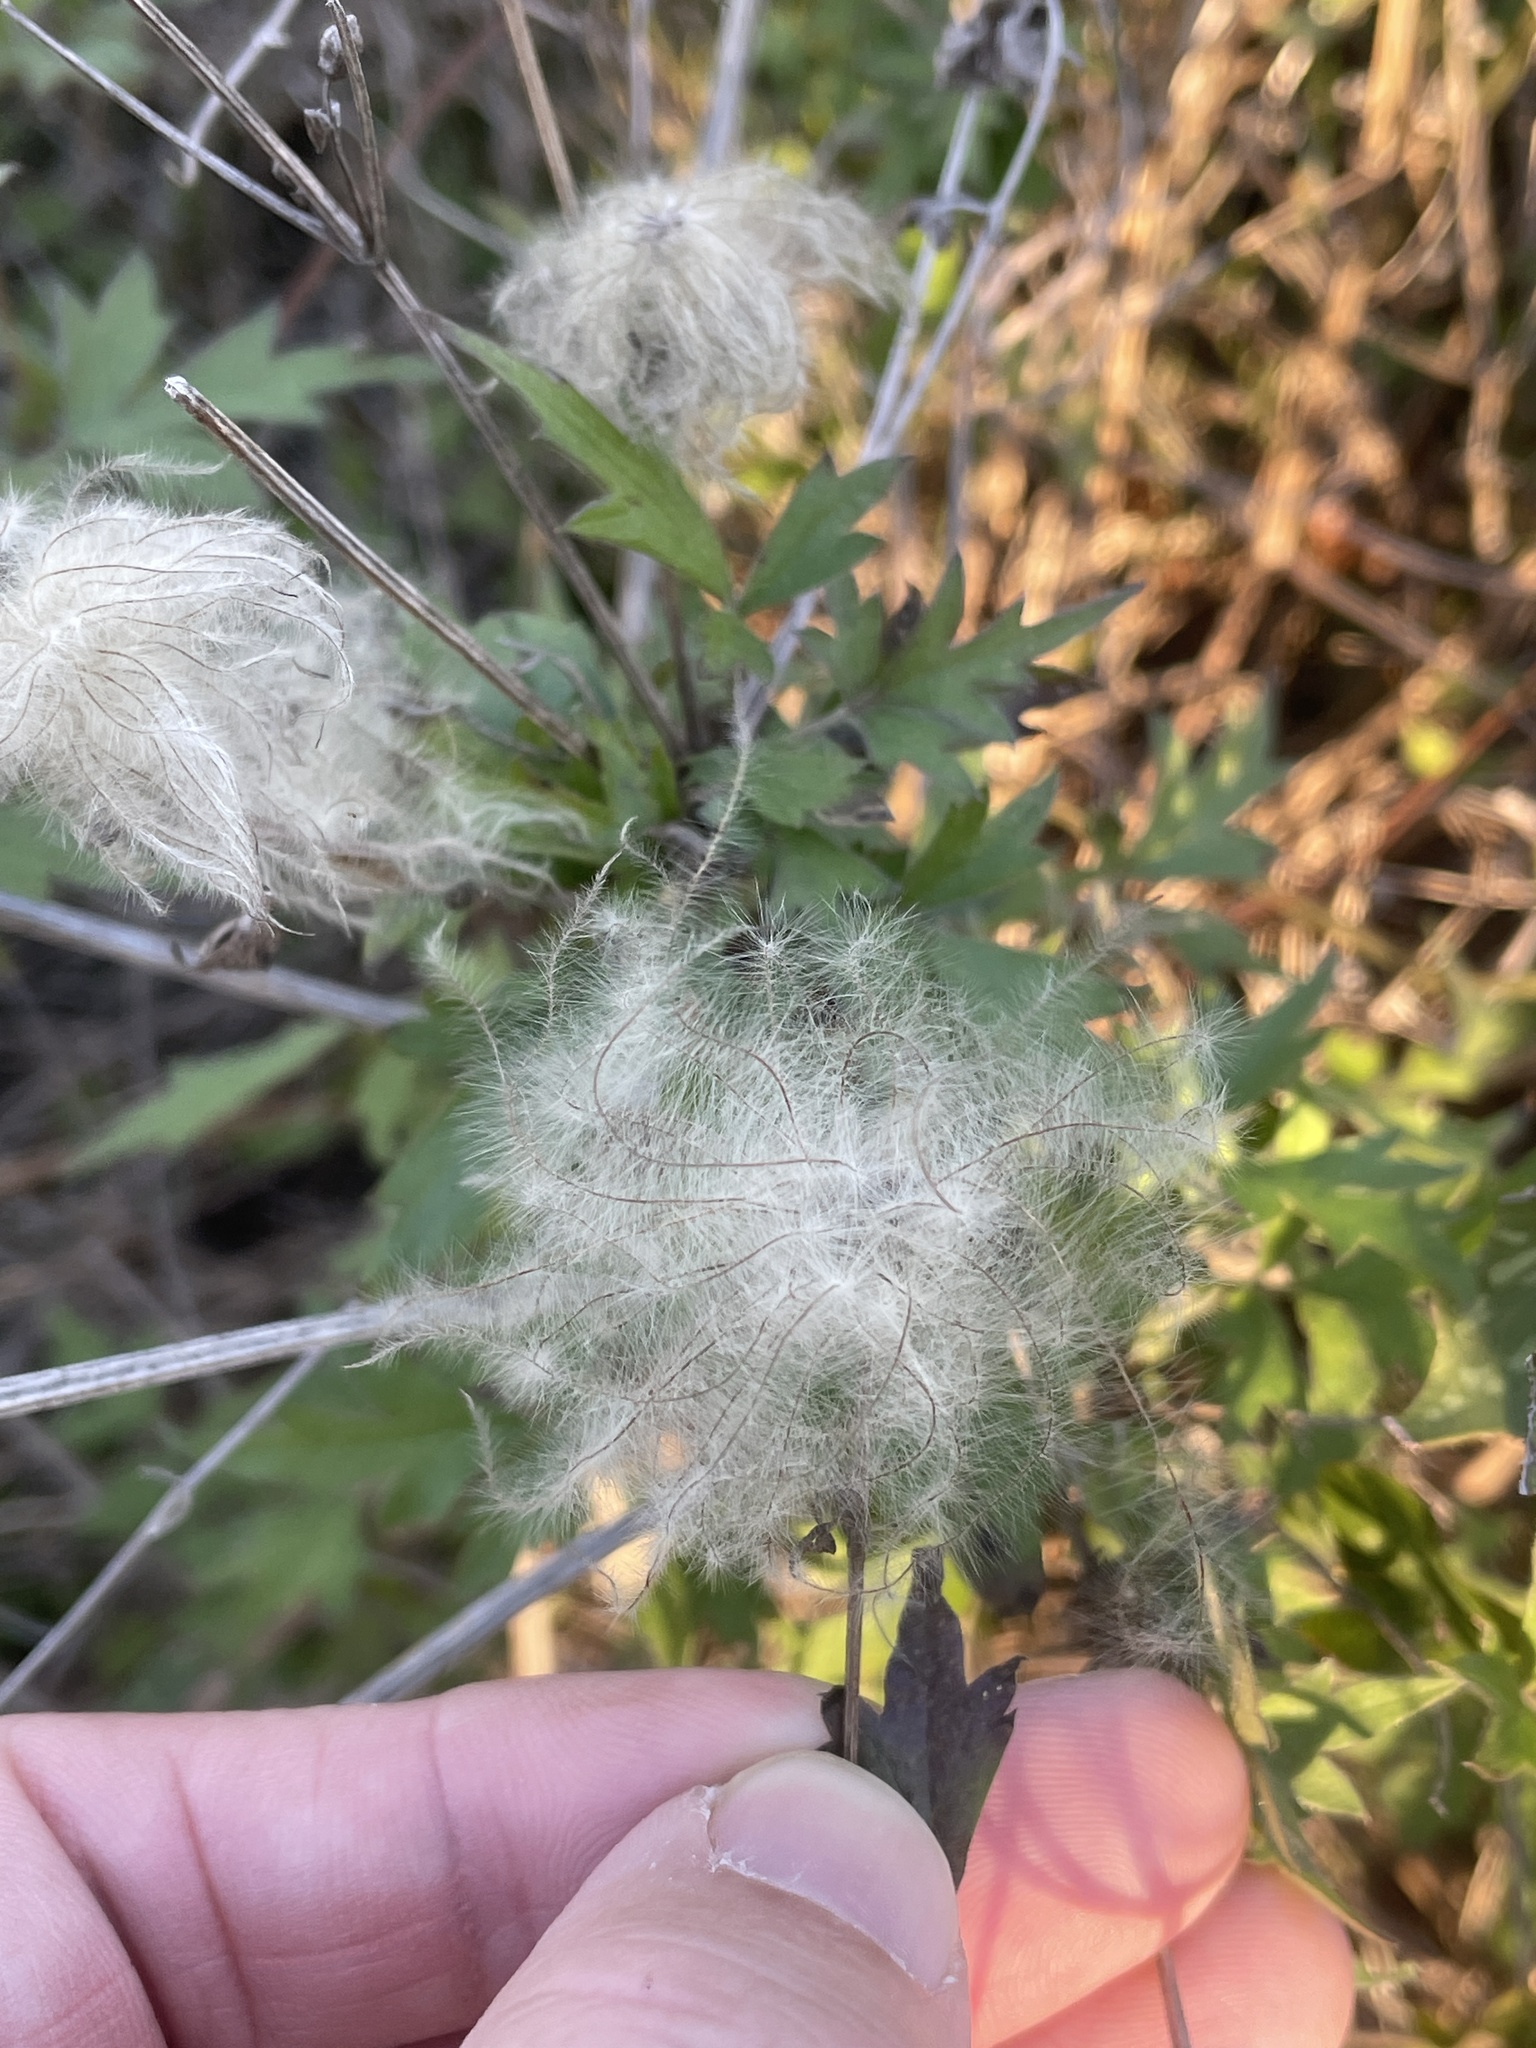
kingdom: Plantae
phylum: Tracheophyta
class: Magnoliopsida
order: Ranunculales
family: Ranunculaceae
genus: Clematis
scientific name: Clematis drummondii
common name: Texas virgin's bower
